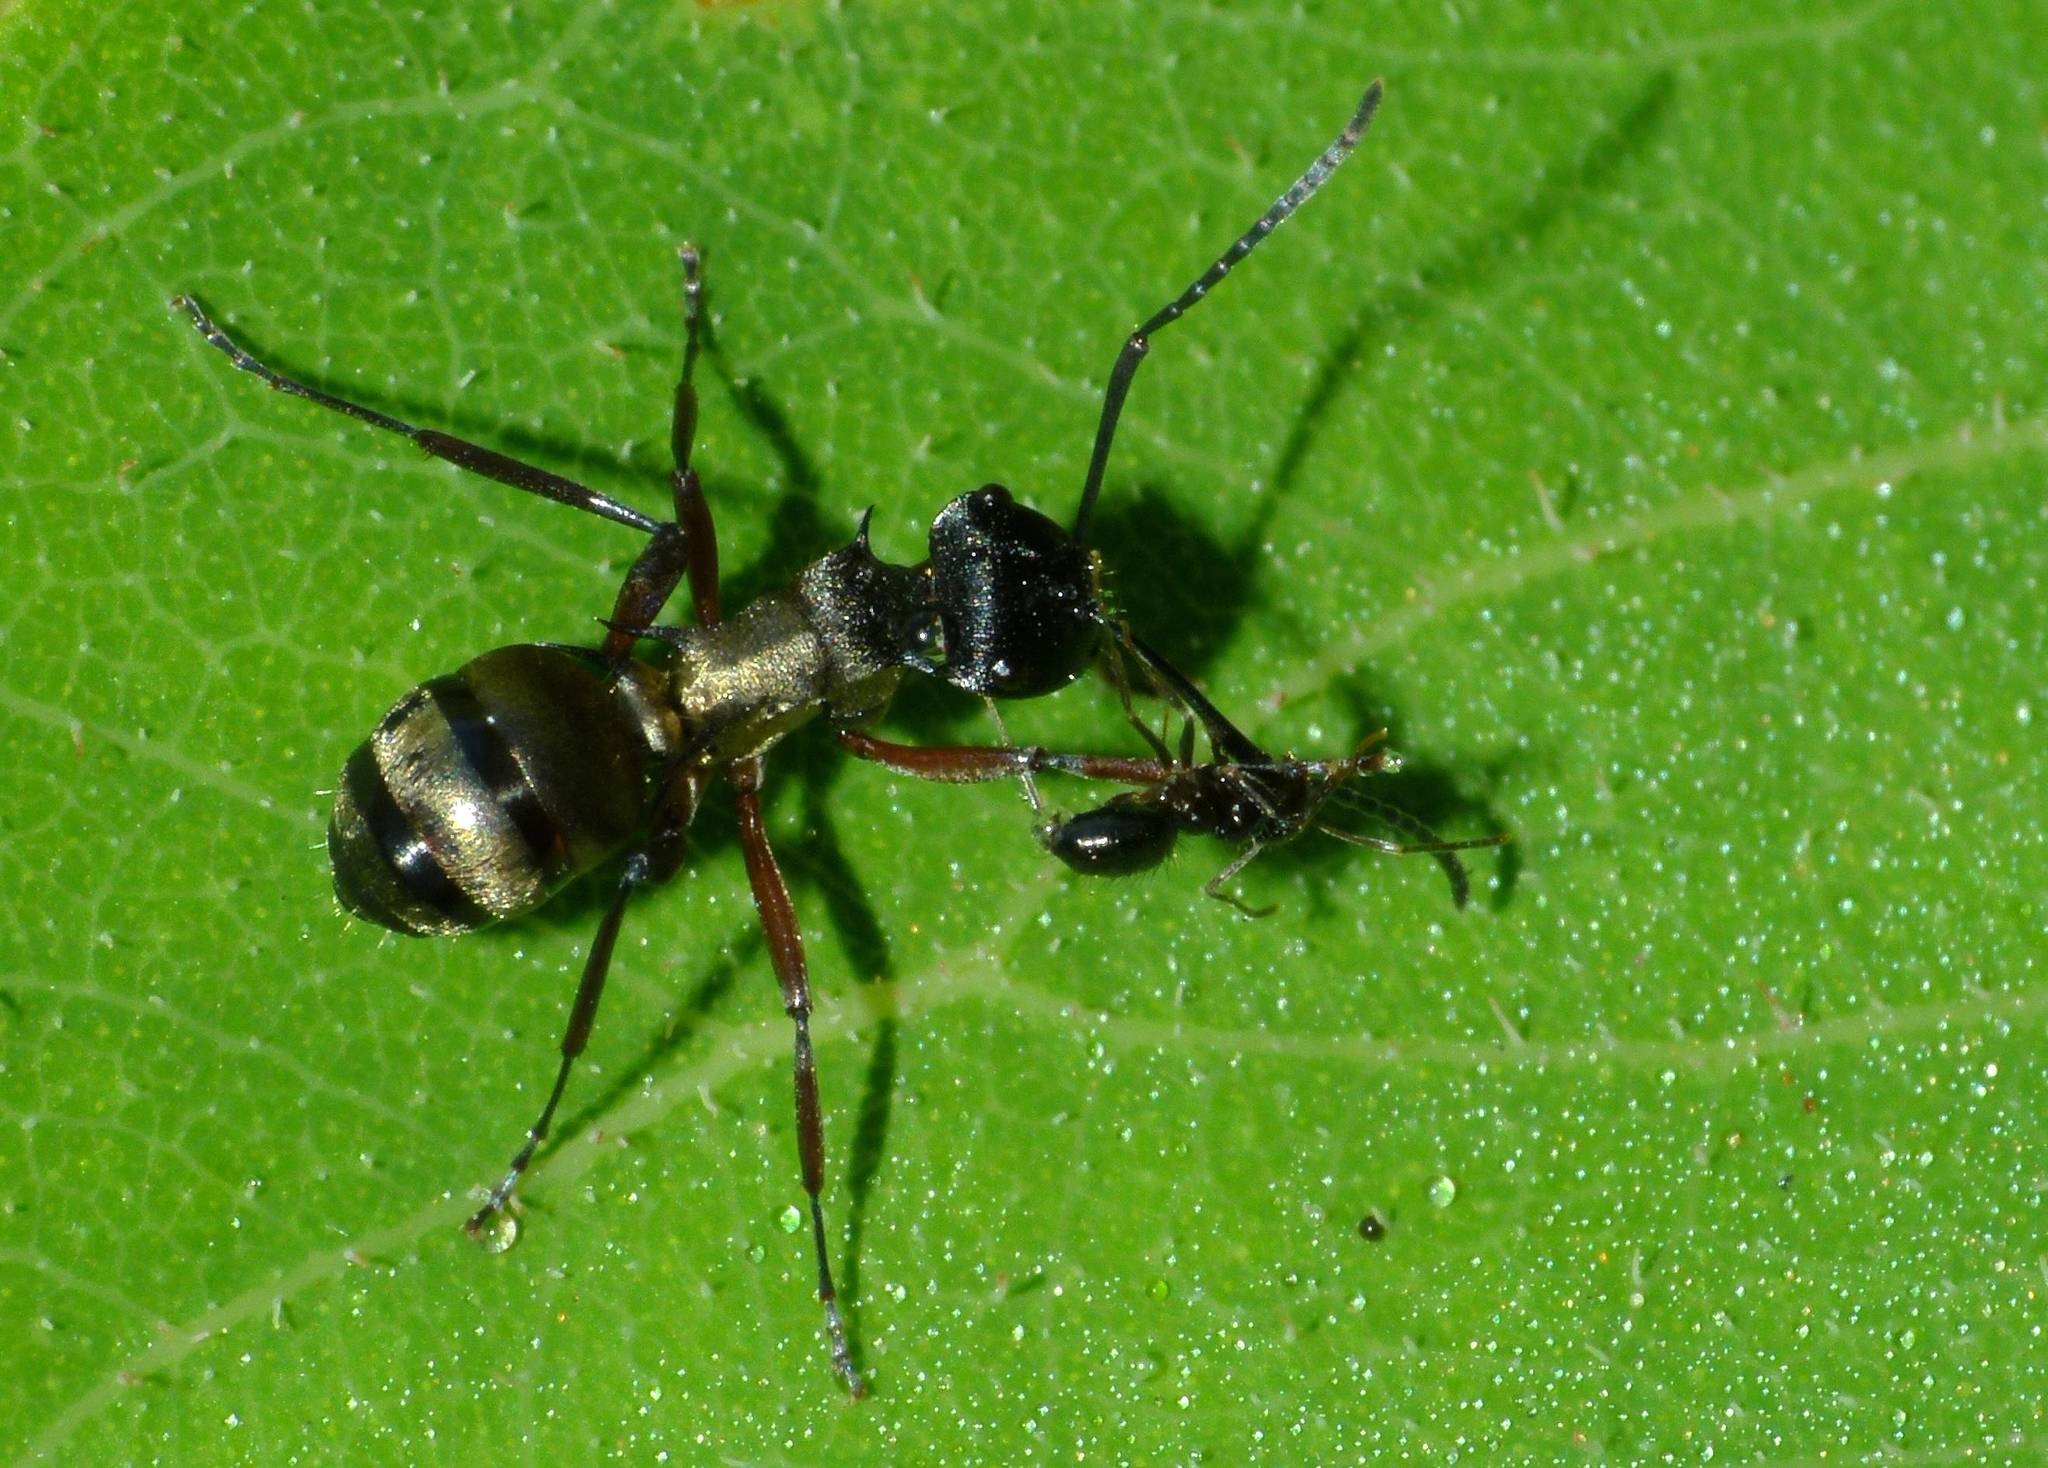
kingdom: Animalia
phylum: Arthropoda
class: Insecta
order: Hymenoptera
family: Formicidae
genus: Polyrhachis
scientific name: Polyrhachis rufifemur
